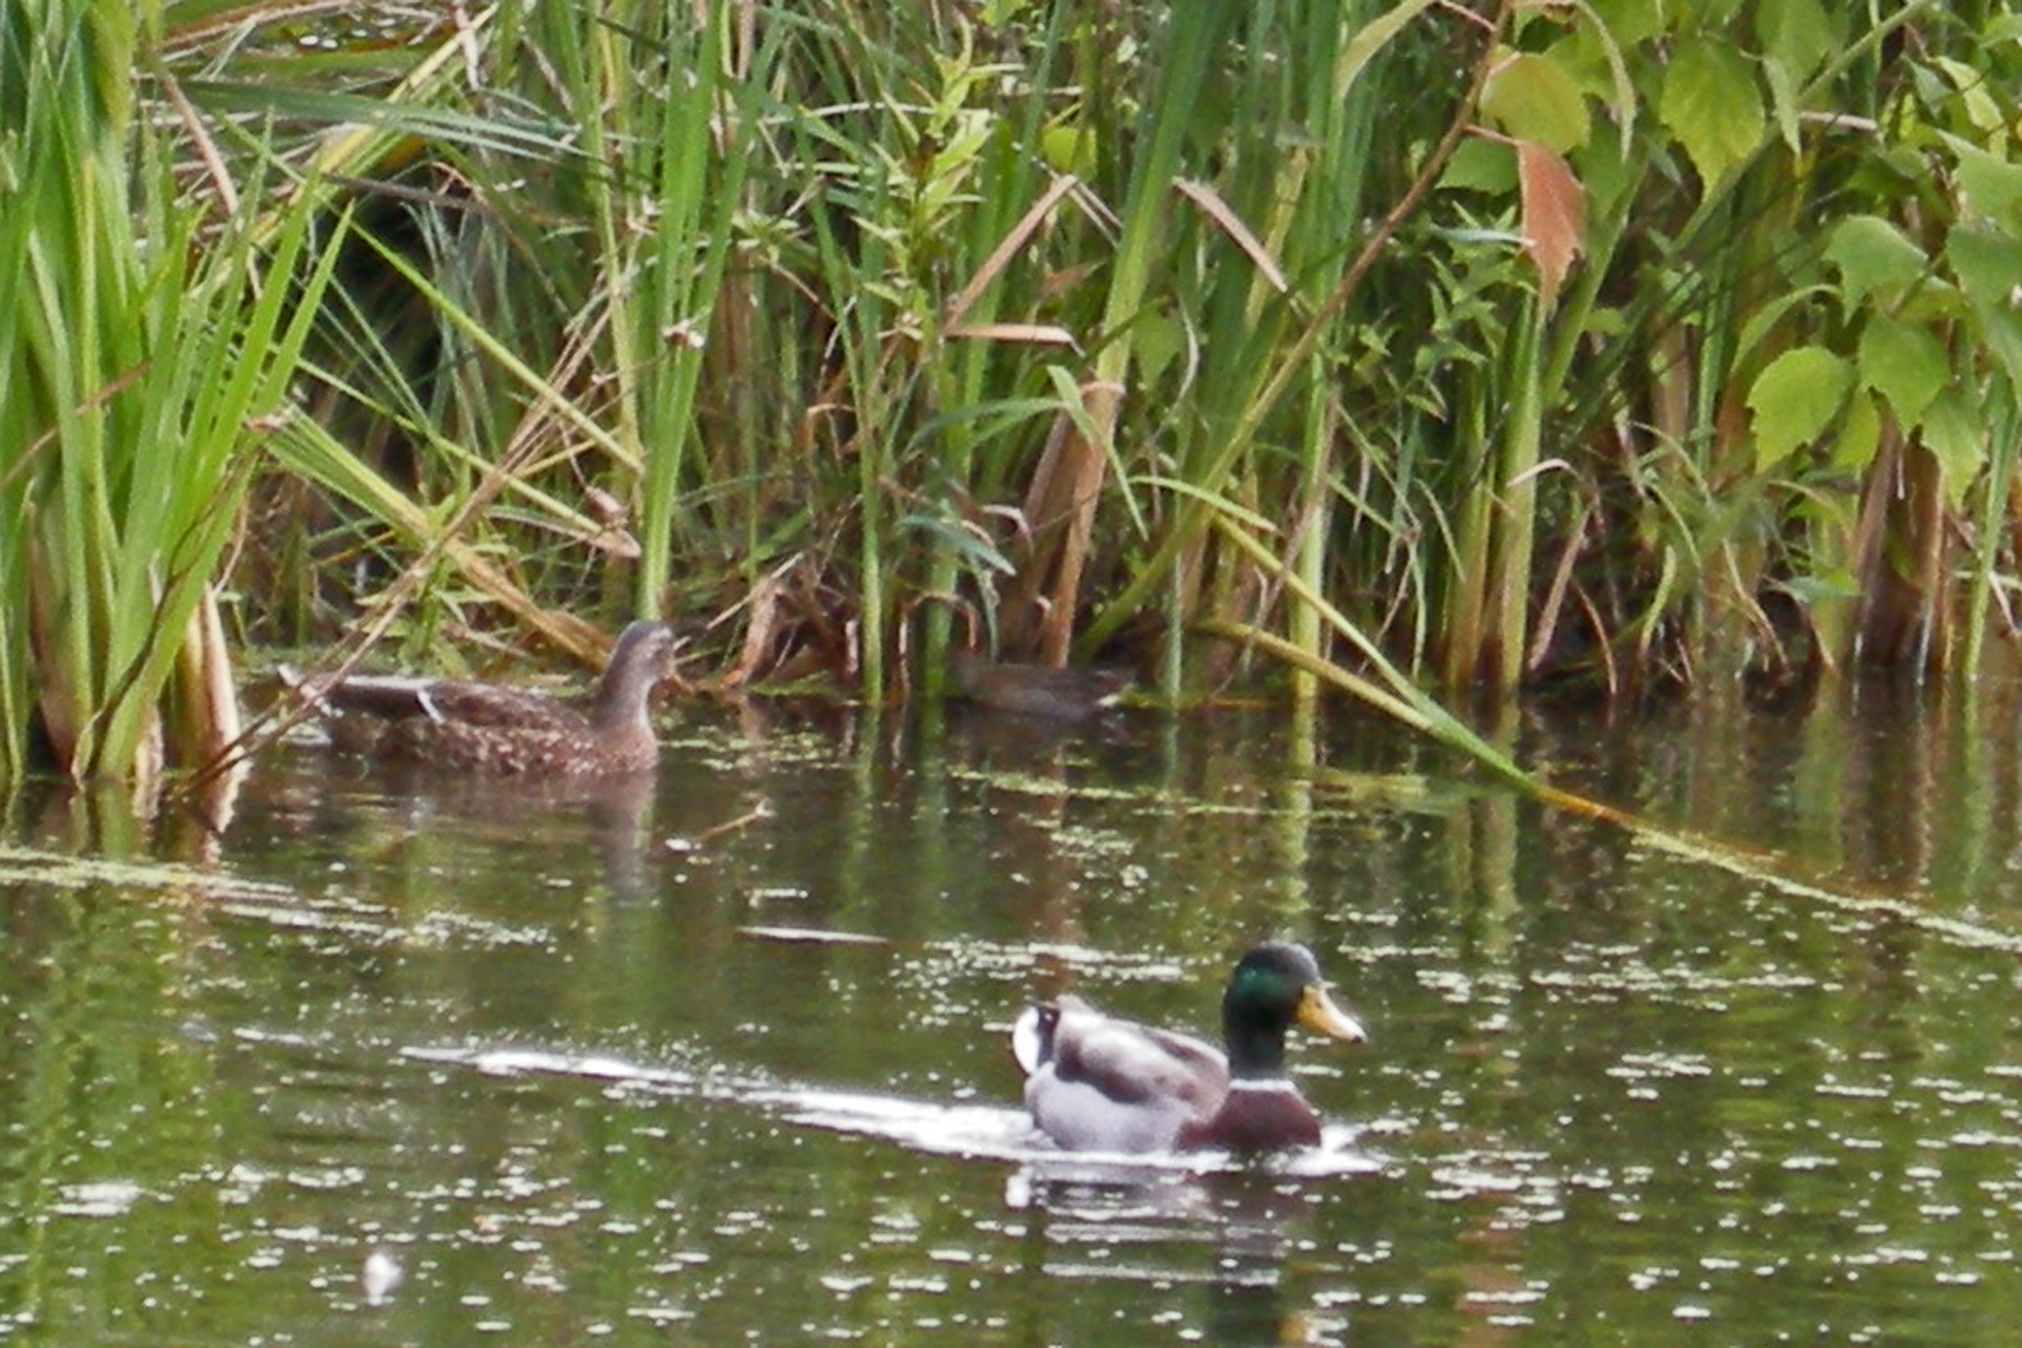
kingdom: Animalia
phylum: Chordata
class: Aves
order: Anseriformes
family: Anatidae
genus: Anas
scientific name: Anas platyrhynchos
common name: Mallard
